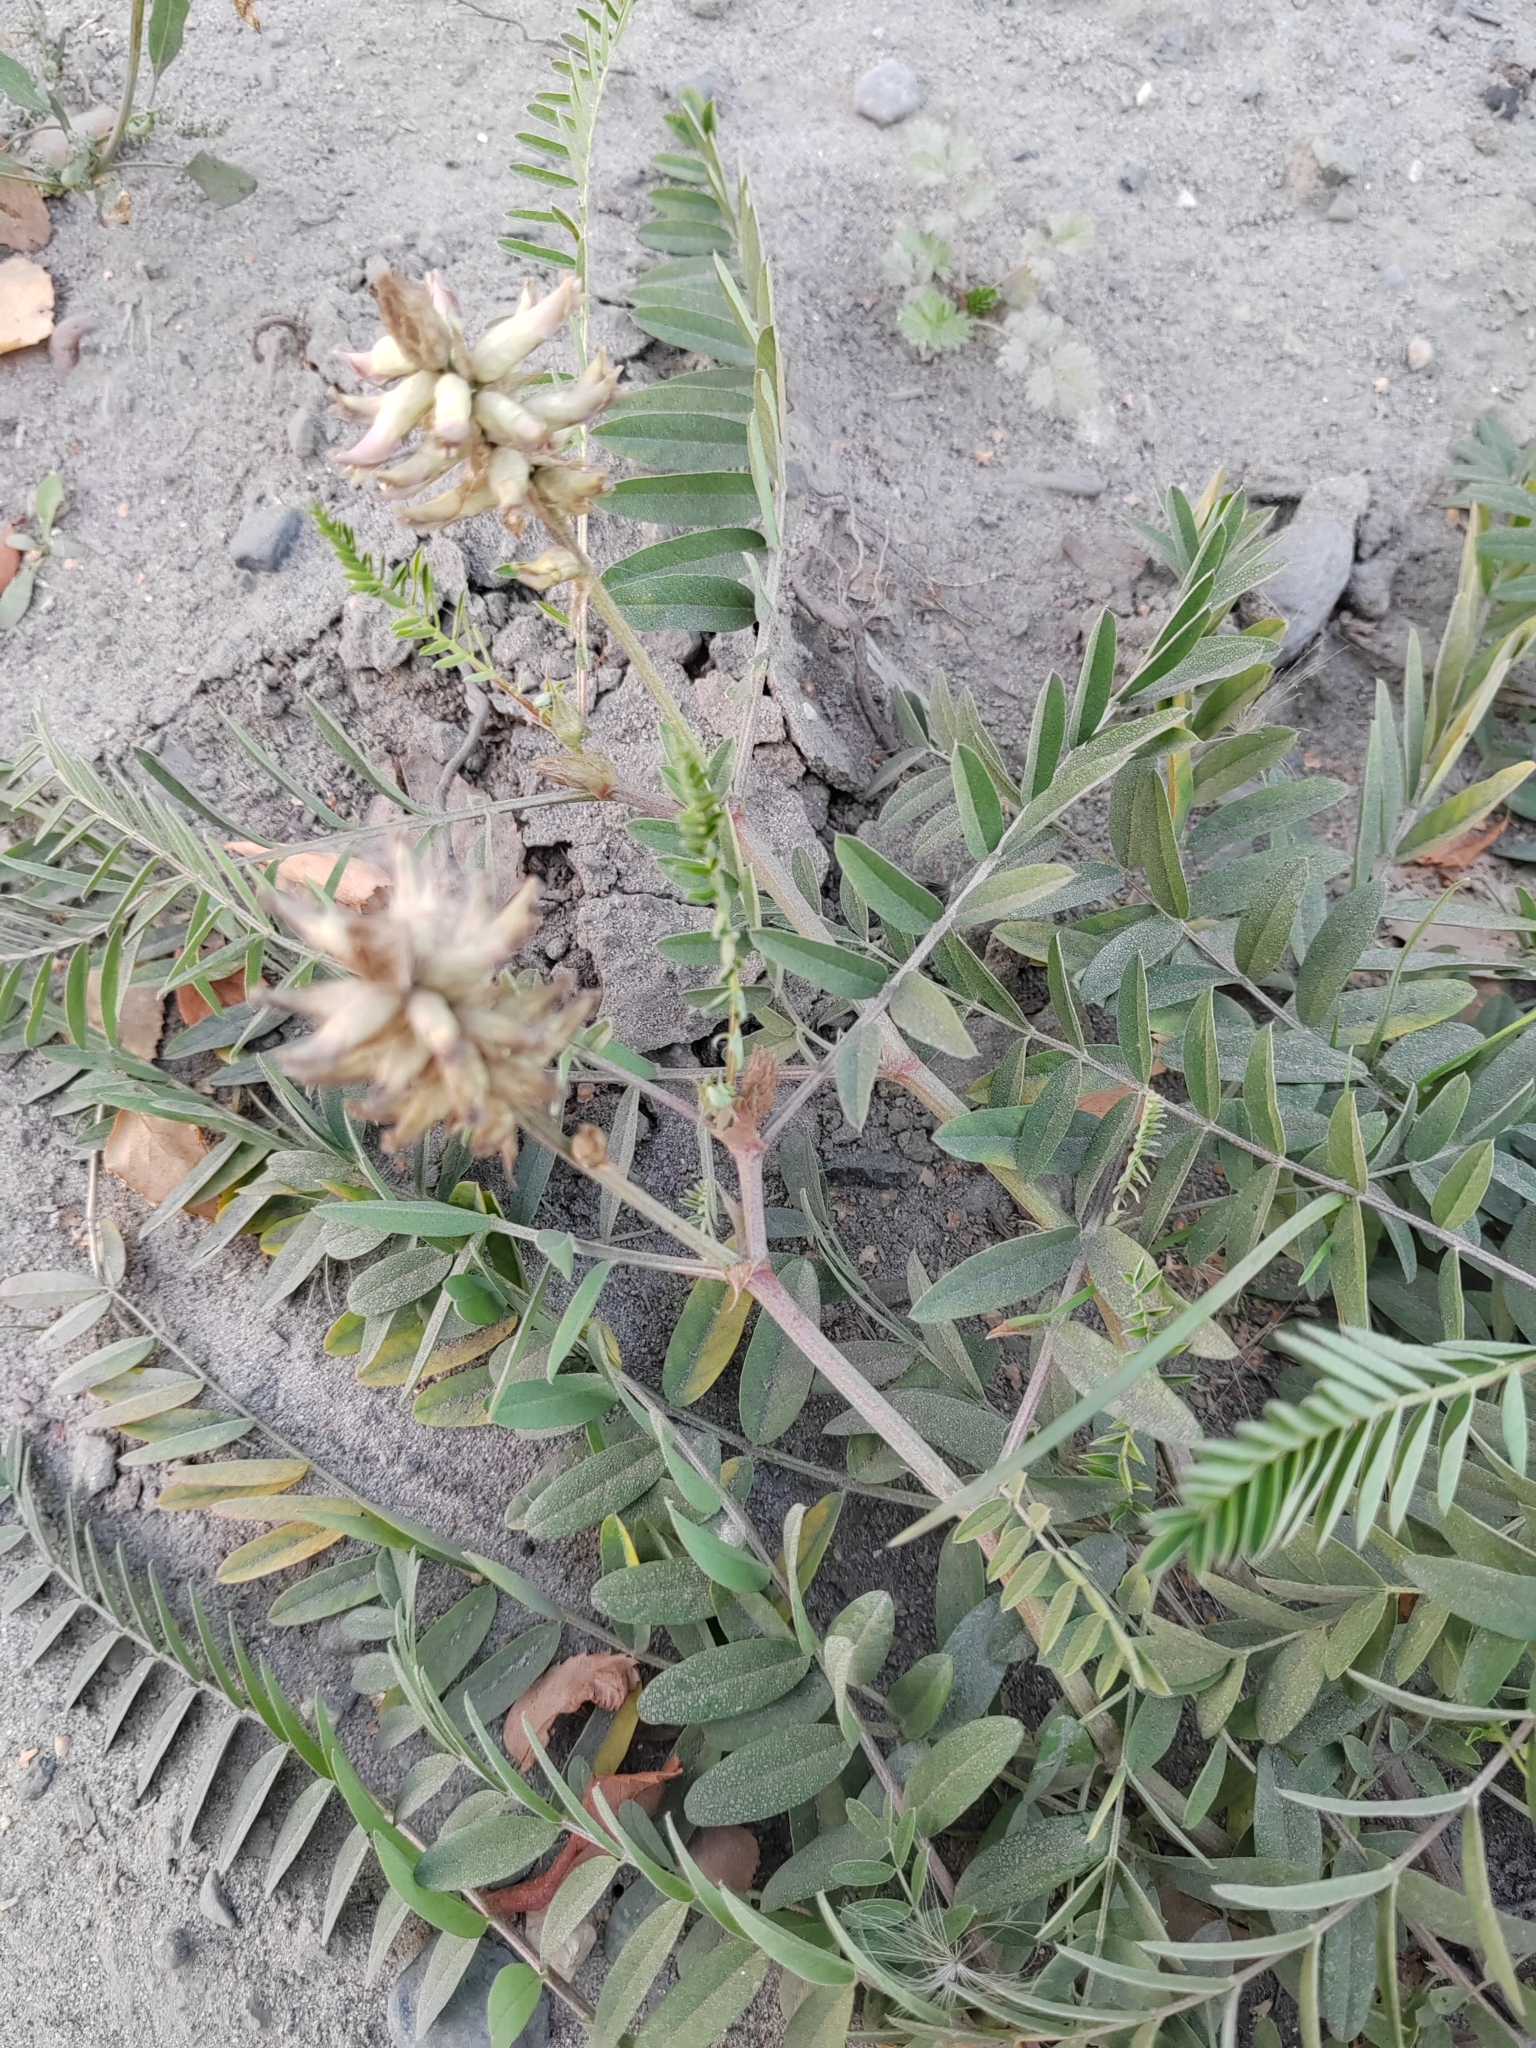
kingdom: Plantae
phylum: Tracheophyta
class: Magnoliopsida
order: Fabales
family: Fabaceae
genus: Astragalus
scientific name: Astragalus uliginosus
